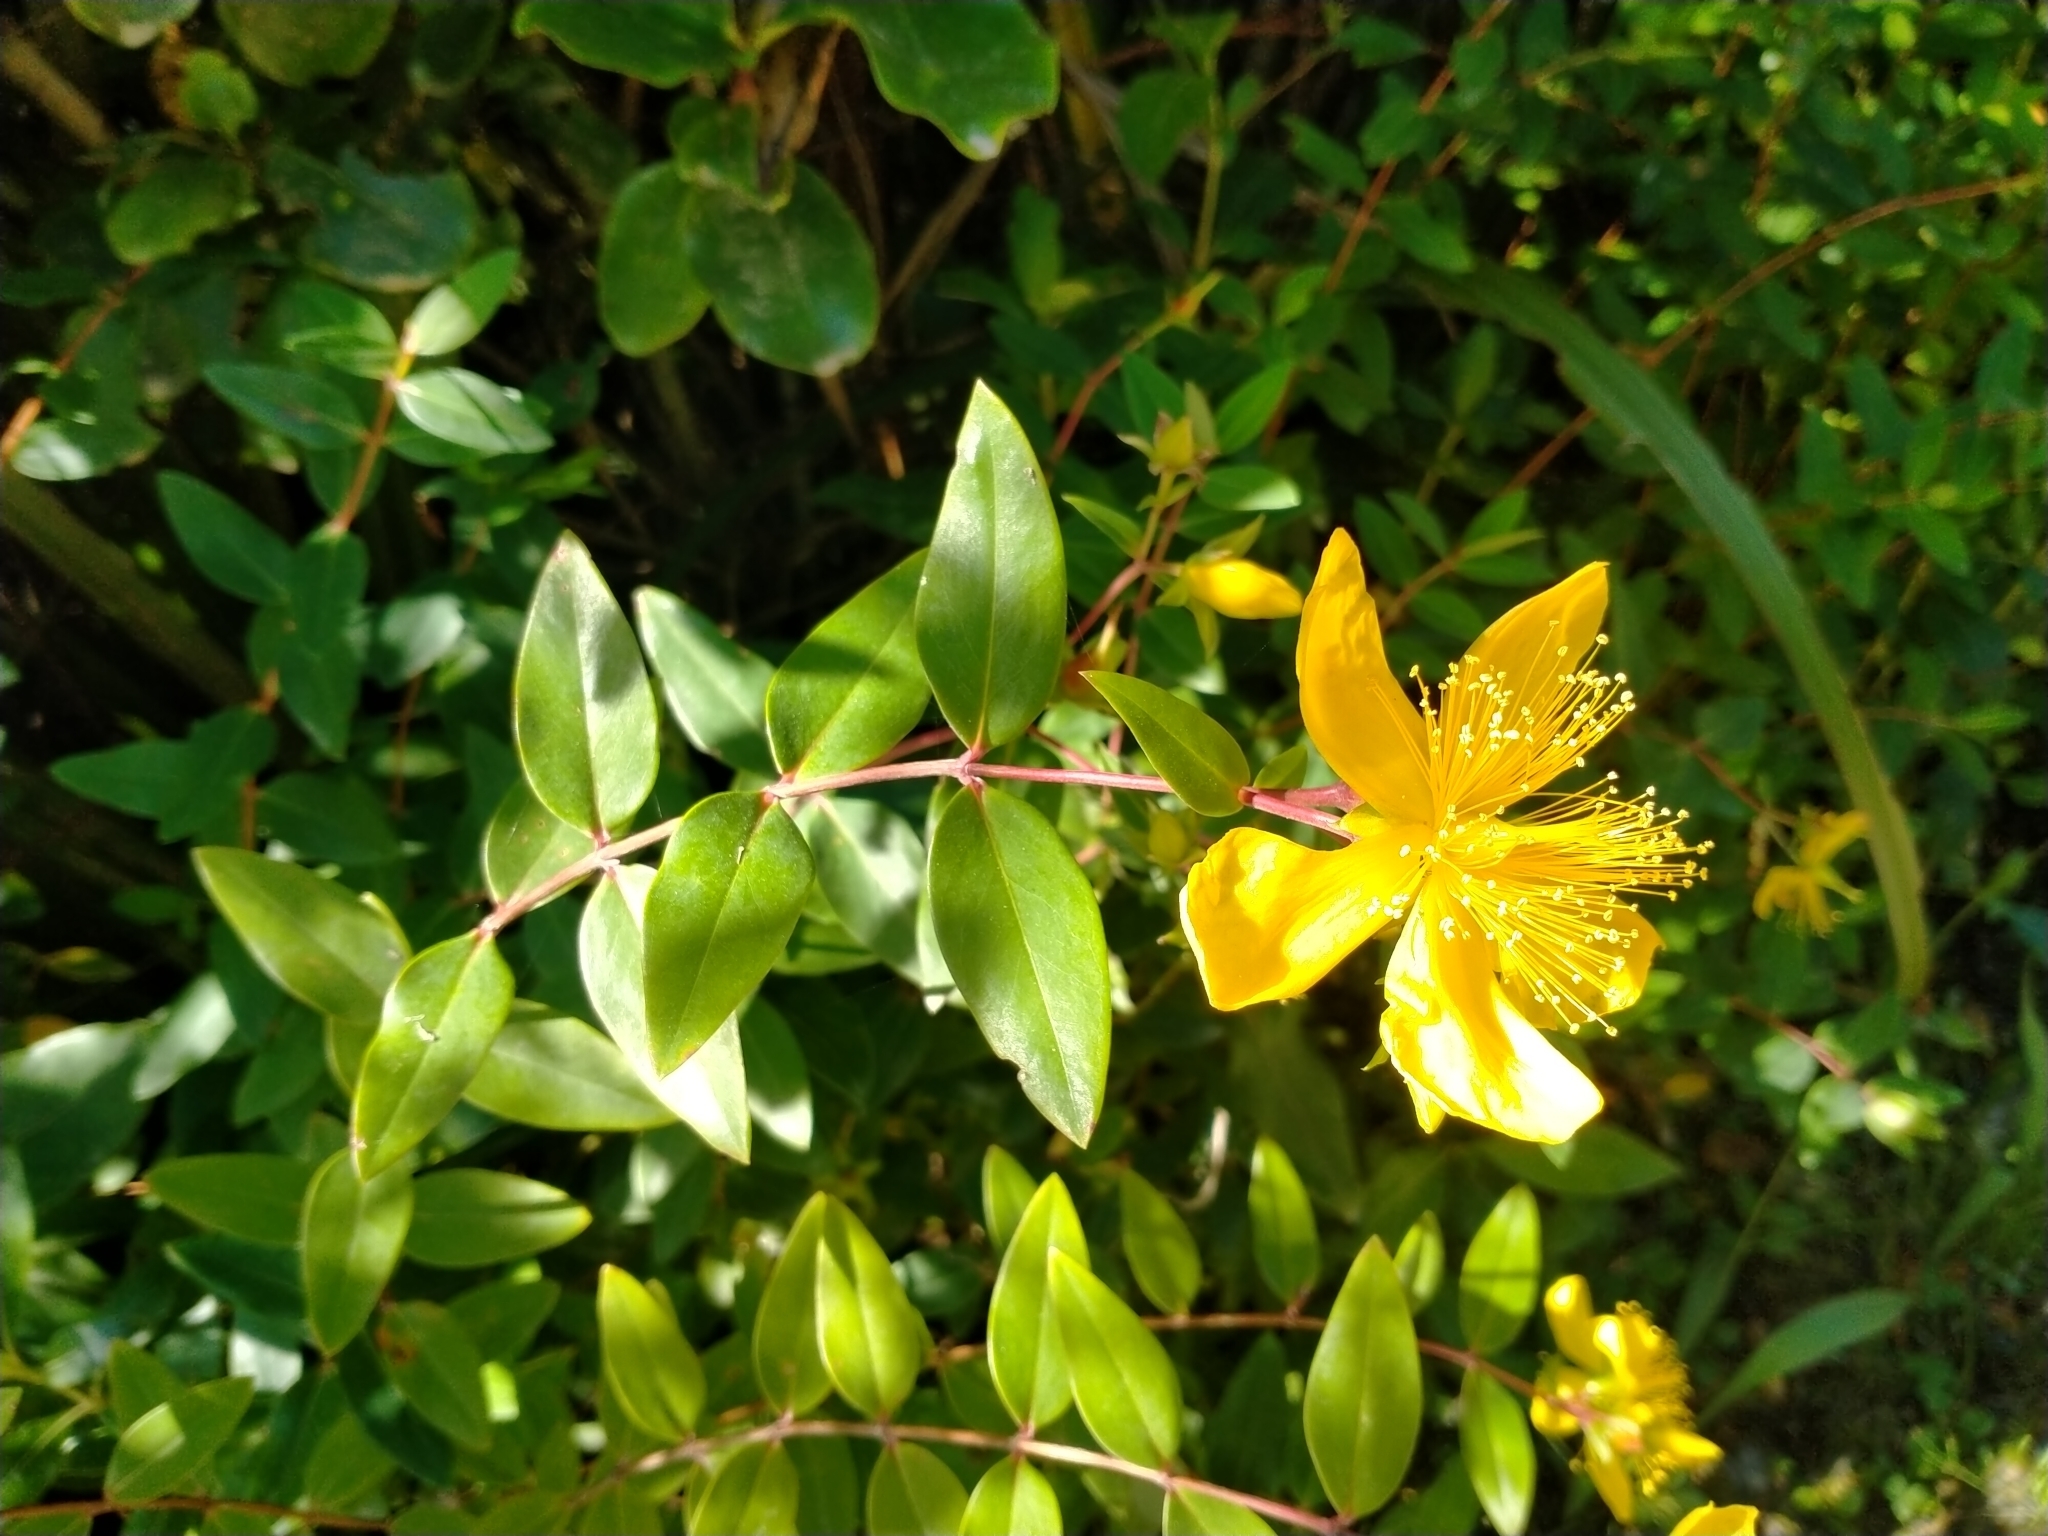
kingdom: Plantae
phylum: Tracheophyta
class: Magnoliopsida
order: Malpighiales
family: Hypericaceae
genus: Hypericum
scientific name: Hypericum calycinum
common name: Rose-of-sharon
